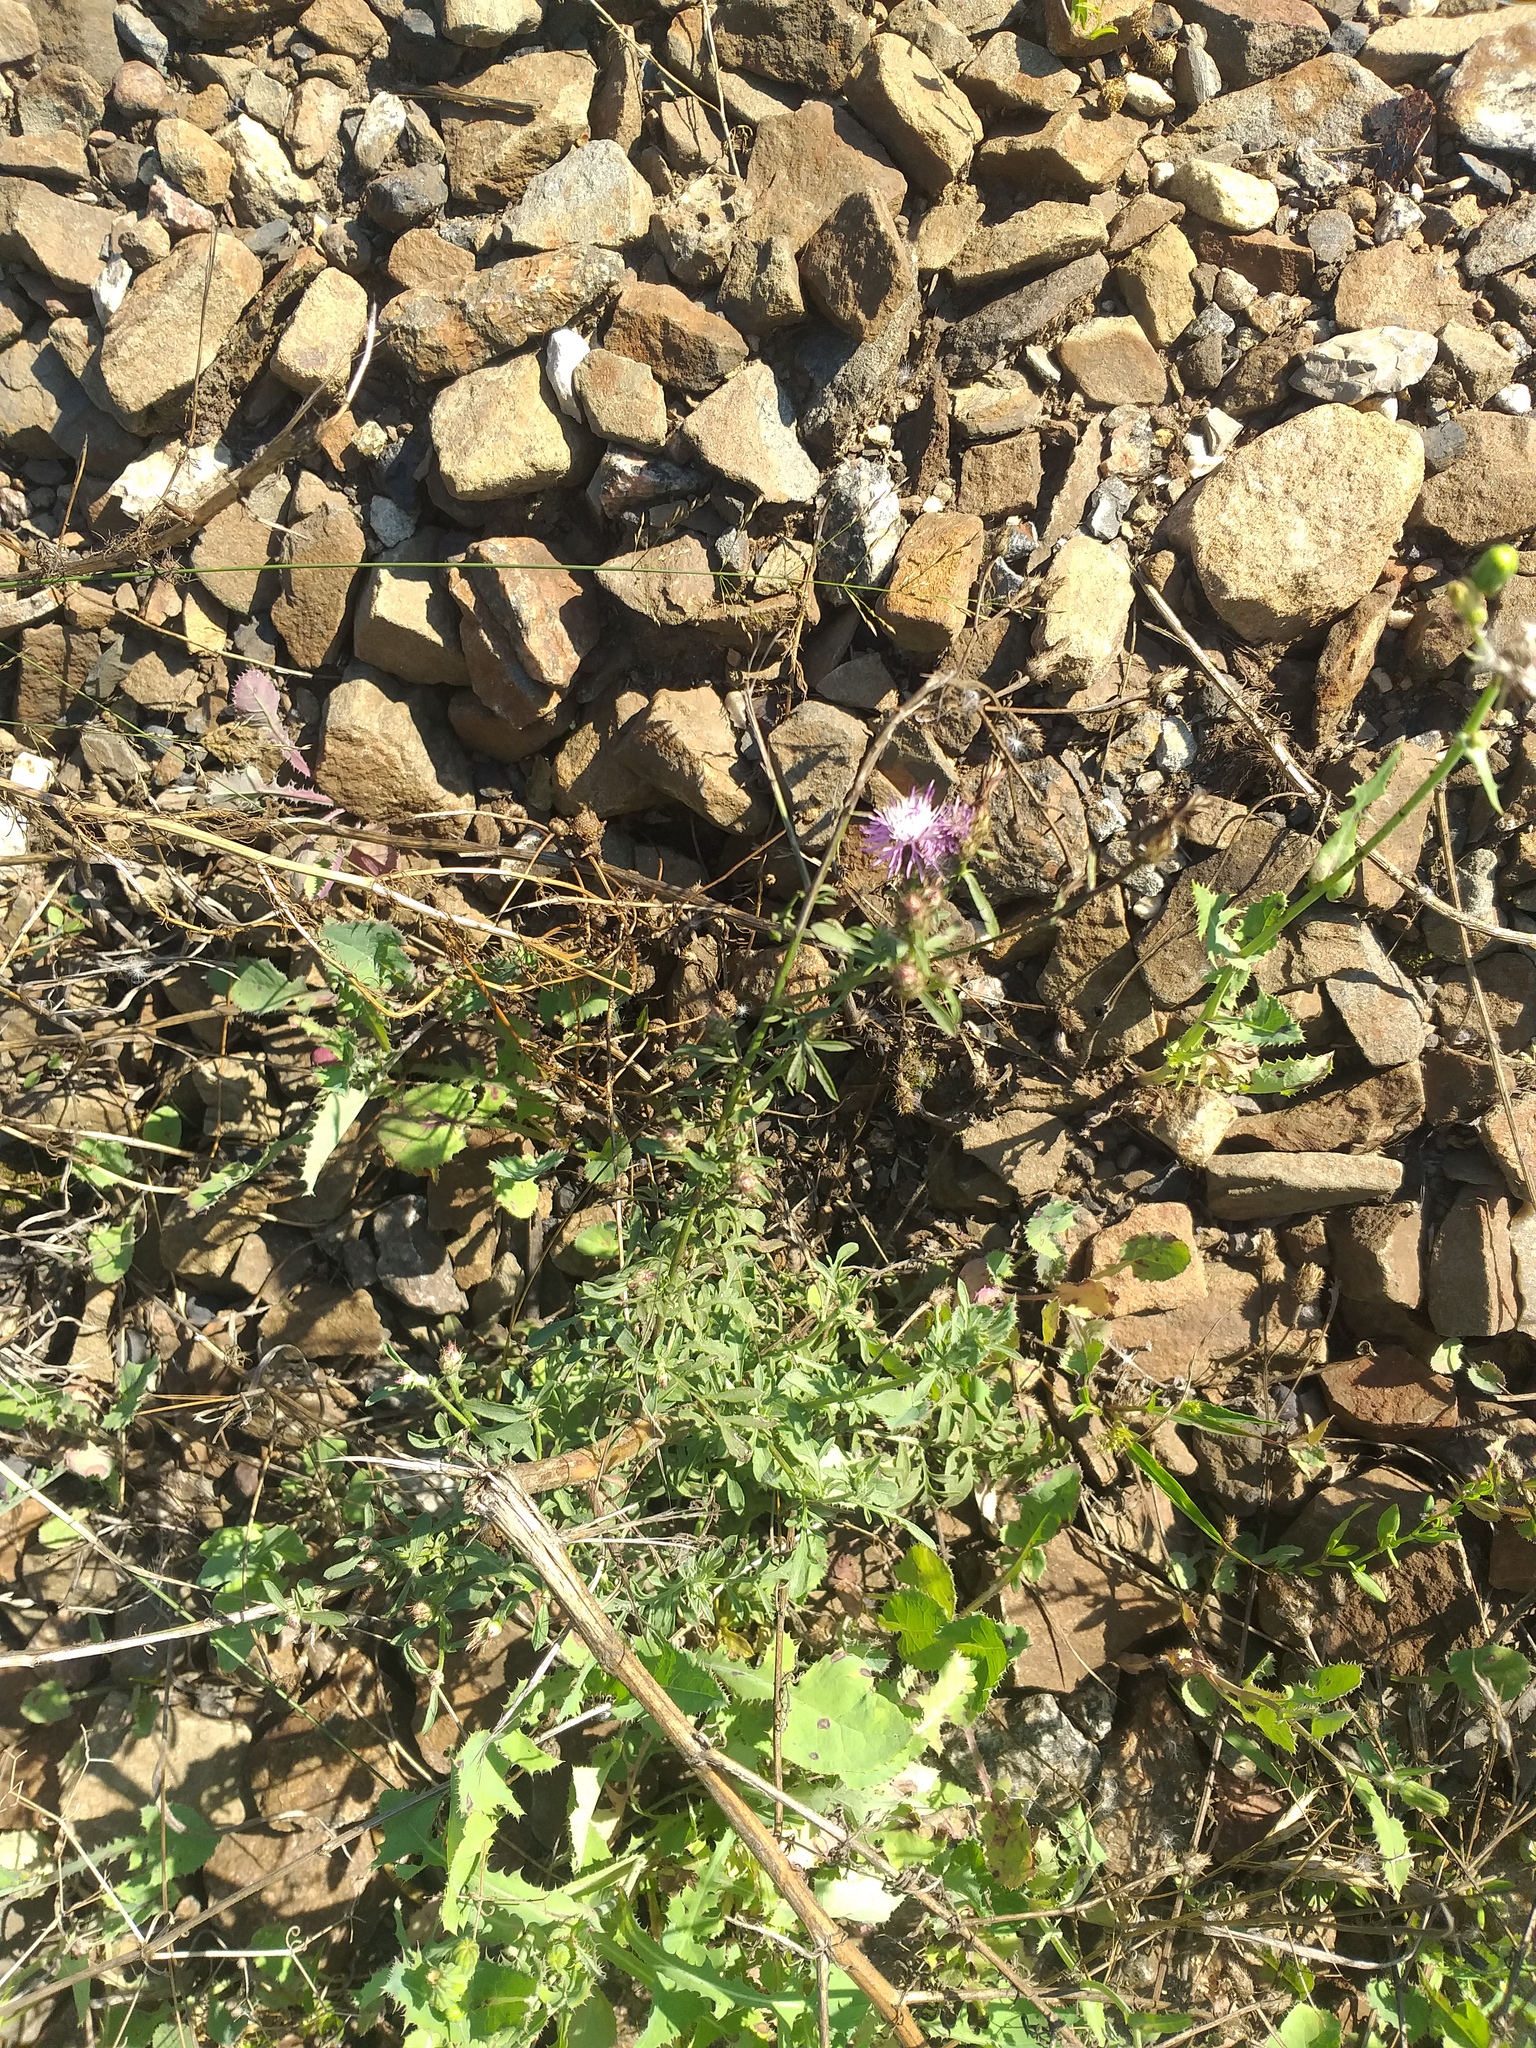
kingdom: Plantae
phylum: Tracheophyta
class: Magnoliopsida
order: Asterales
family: Asteraceae
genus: Centaurea
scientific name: Centaurea diffusa
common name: Diffuse knapweed
